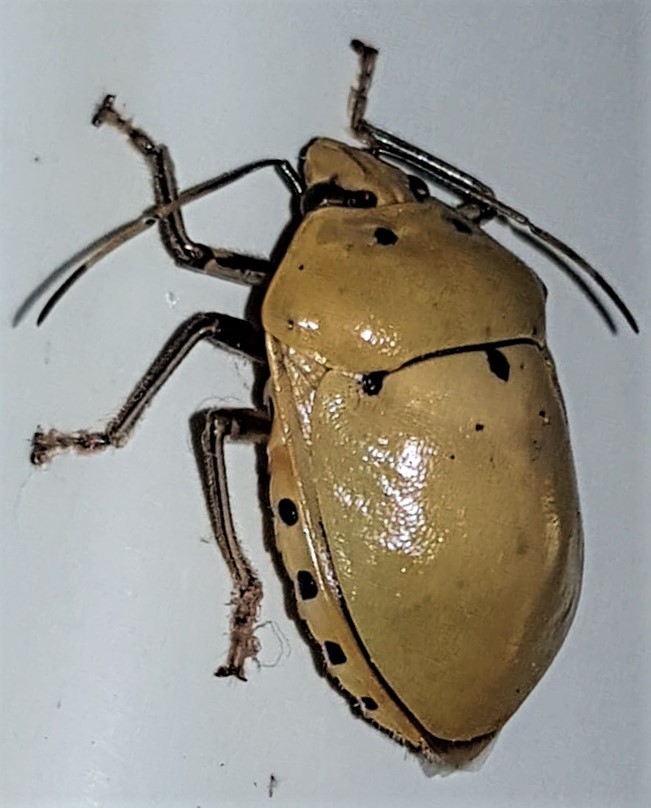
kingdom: Animalia
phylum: Arthropoda
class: Insecta
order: Hemiptera
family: Scutelleridae
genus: Augocoris
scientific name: Augocoris gomesii
